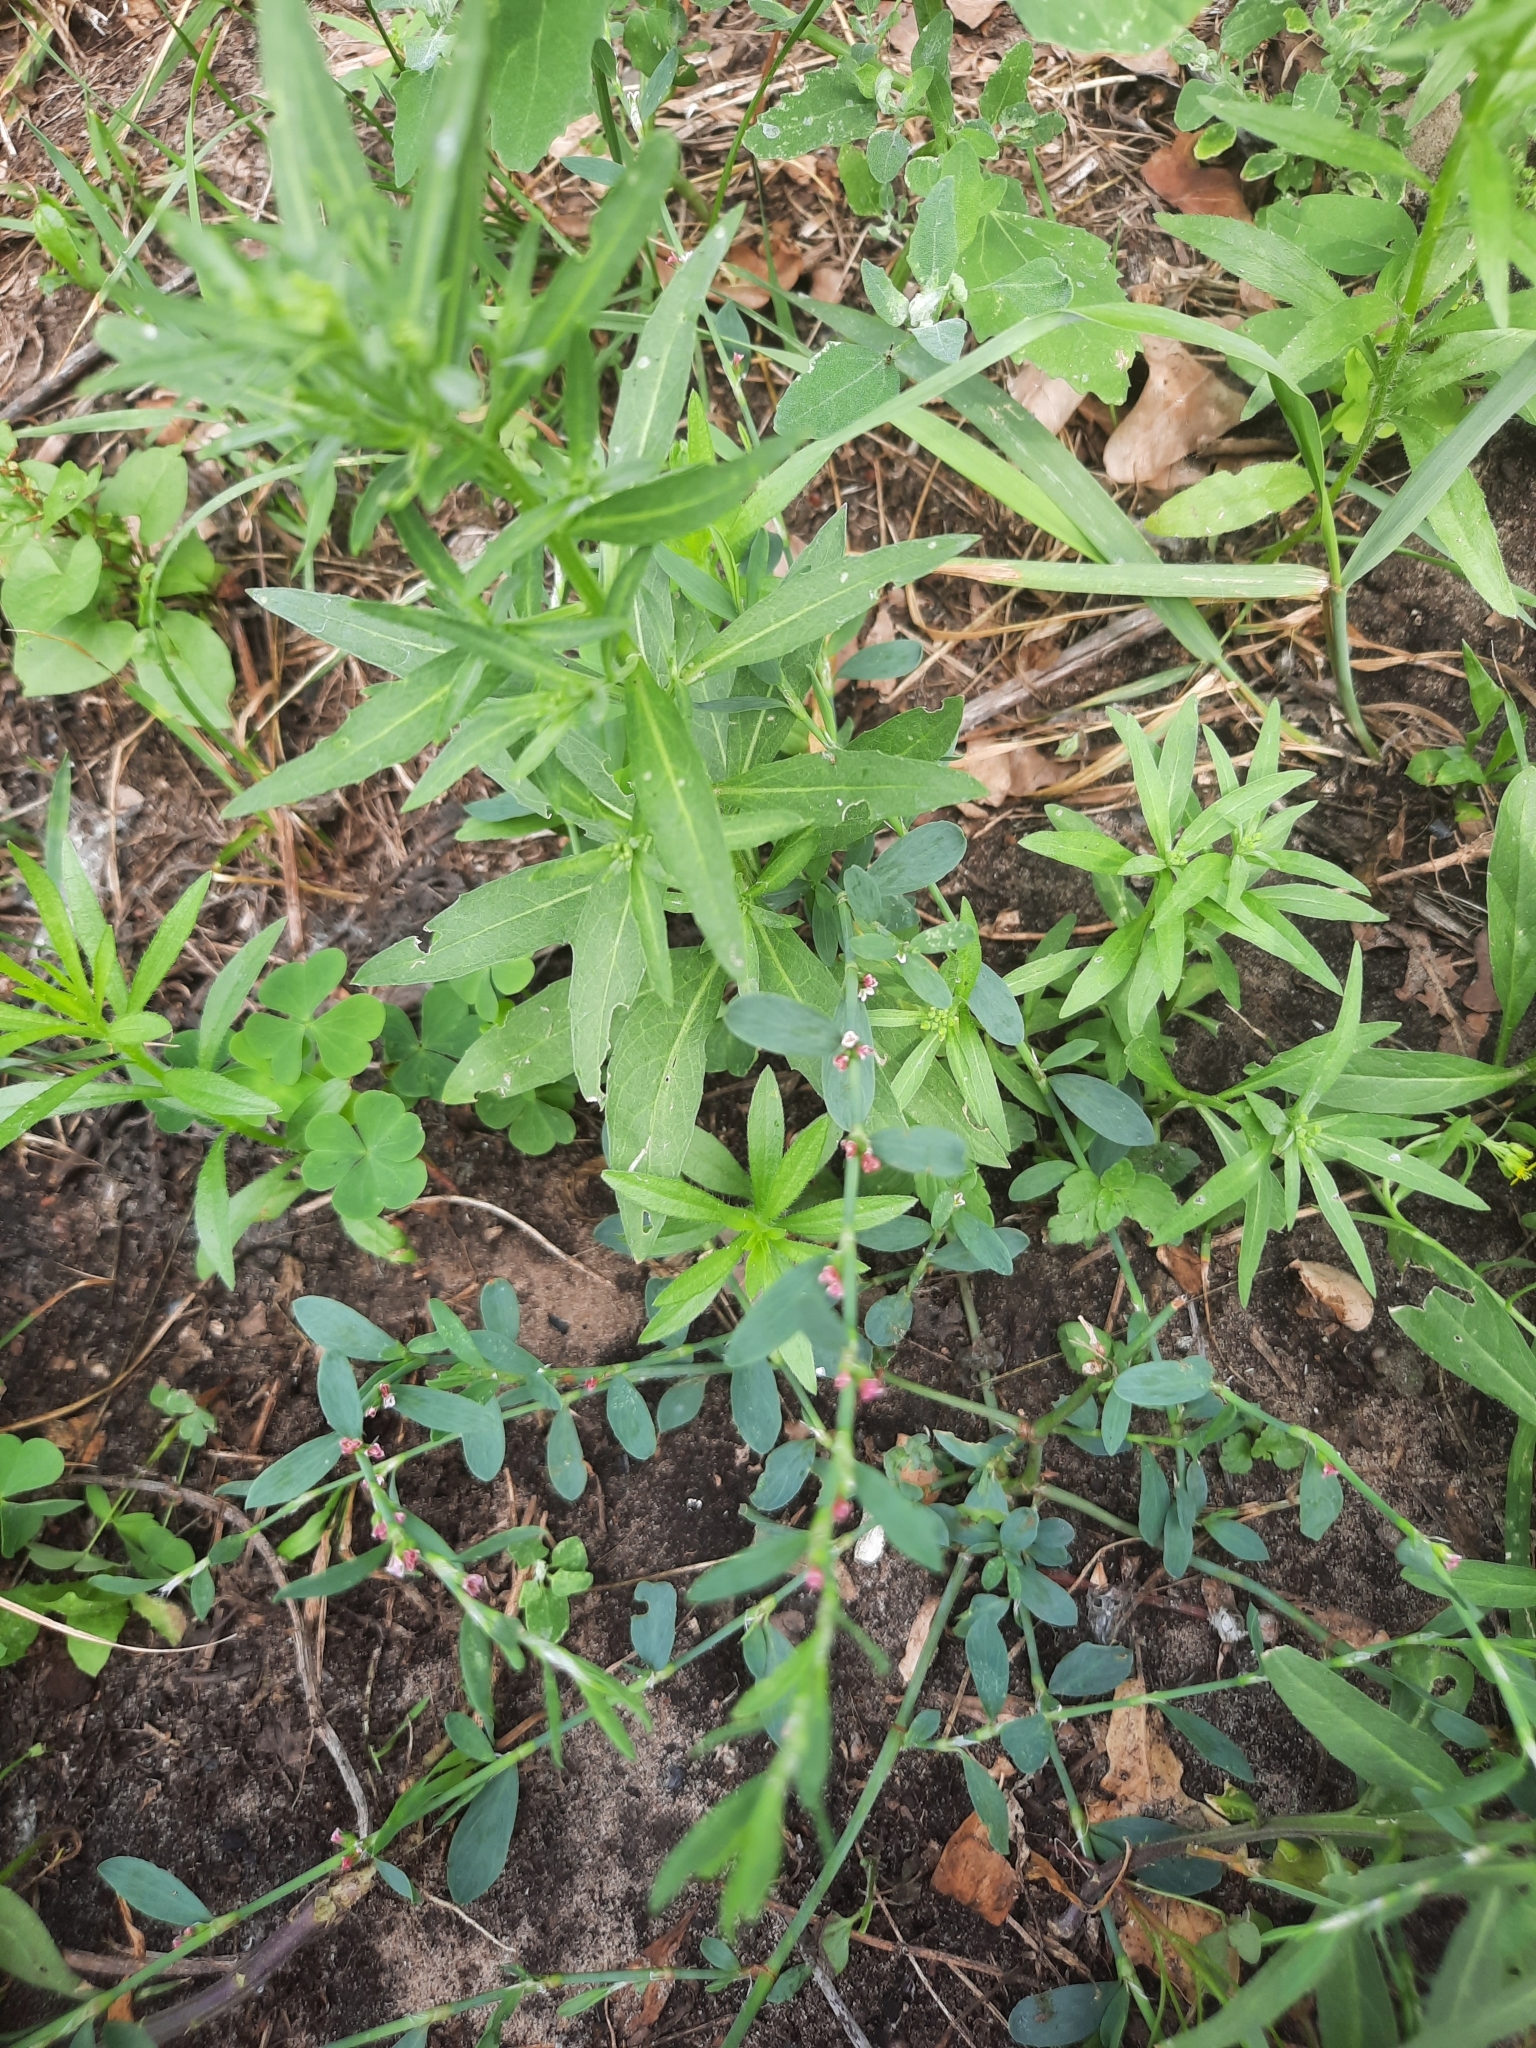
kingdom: Plantae
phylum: Tracheophyta
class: Magnoliopsida
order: Caryophyllales
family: Polygonaceae
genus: Polygonum
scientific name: Polygonum aviculare
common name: Prostrate knotweed
